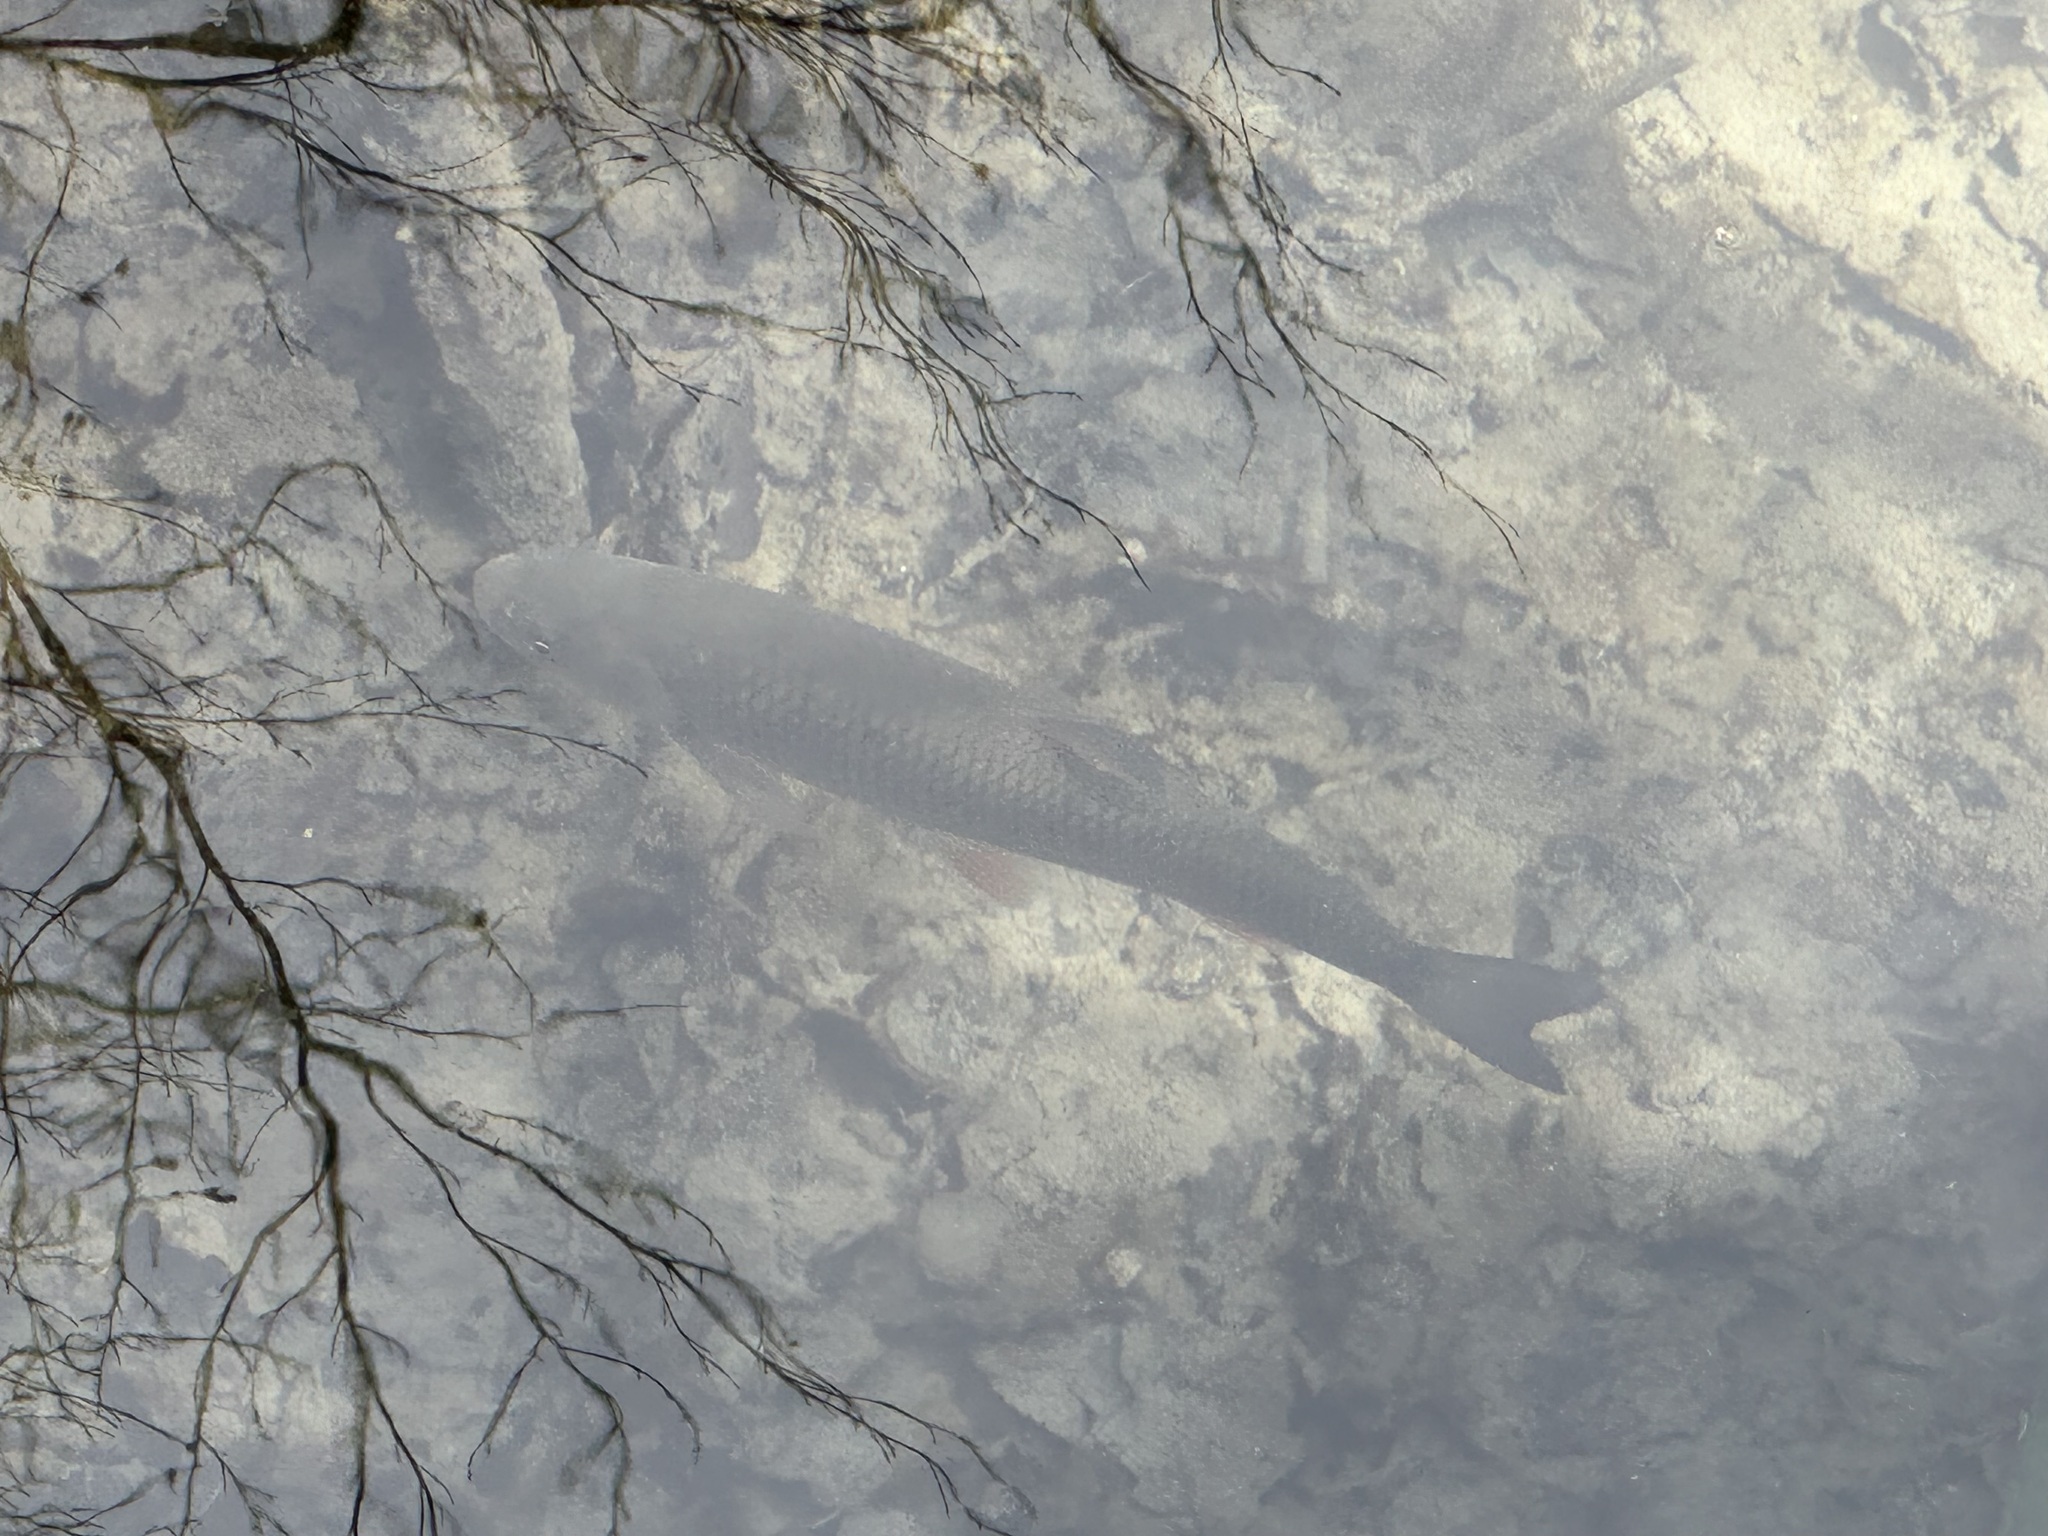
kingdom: Animalia
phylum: Chordata
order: Cypriniformes
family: Cyprinidae
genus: Squalius
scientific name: Squalius cephalus
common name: Chub
